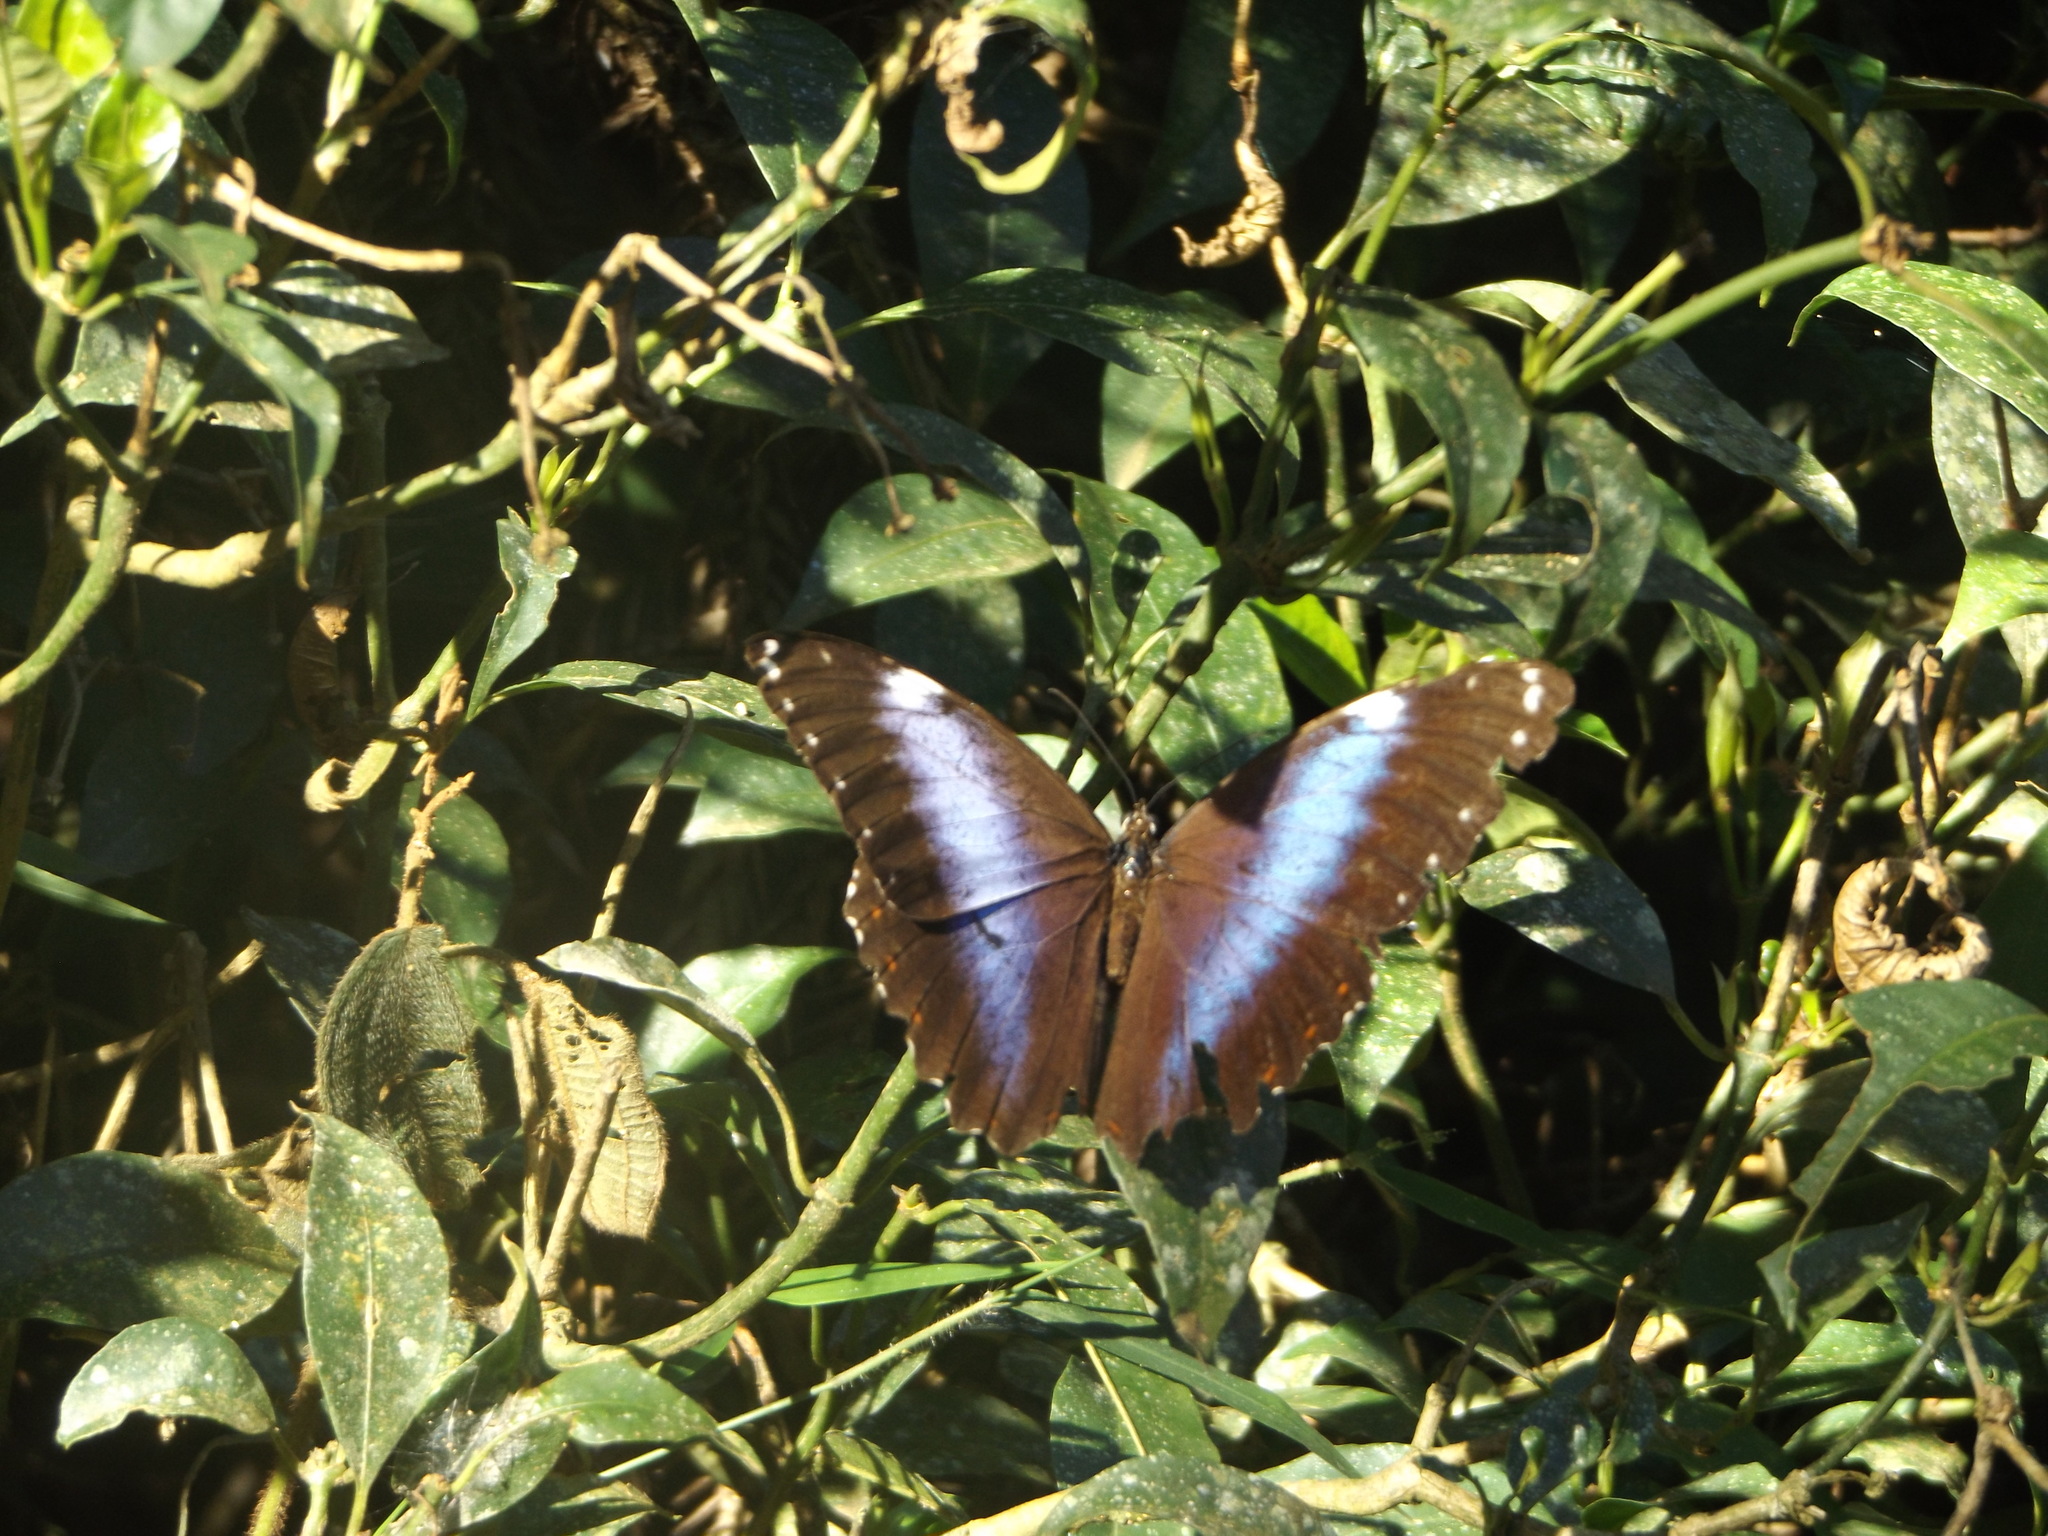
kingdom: Animalia
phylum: Arthropoda
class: Insecta
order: Lepidoptera
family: Nymphalidae
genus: Morpho
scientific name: Morpho helenor
